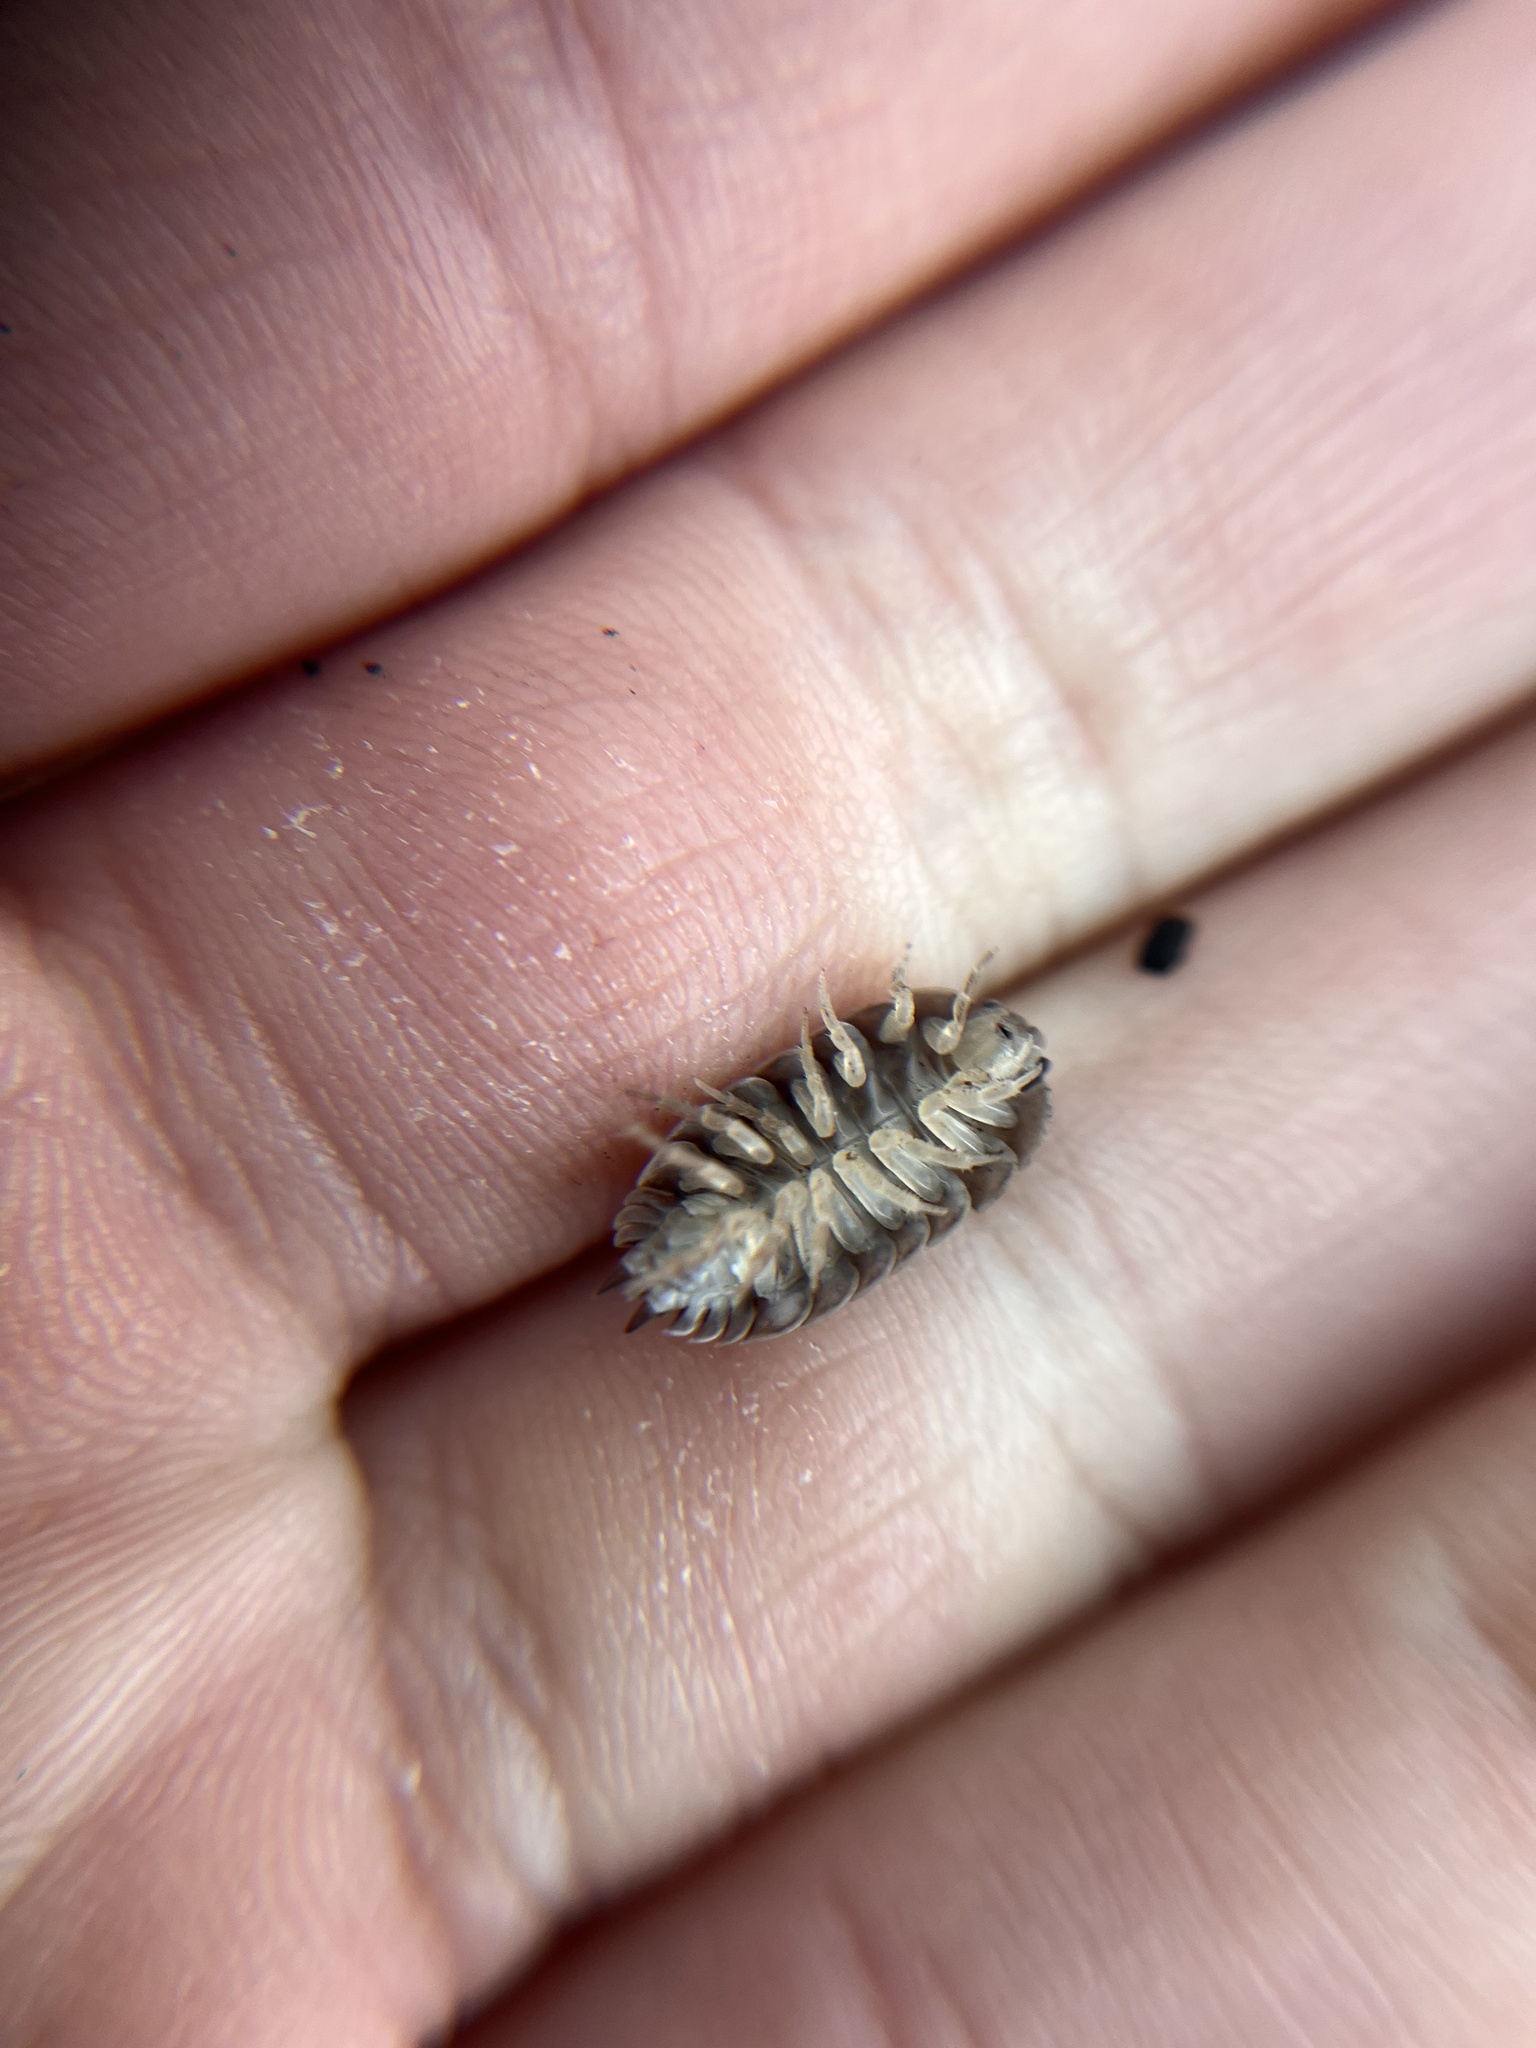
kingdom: Animalia
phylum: Arthropoda
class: Malacostraca
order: Isopoda
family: Porcellionidae
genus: Porcellio
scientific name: Porcellio laevis
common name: Swift woodlouse
